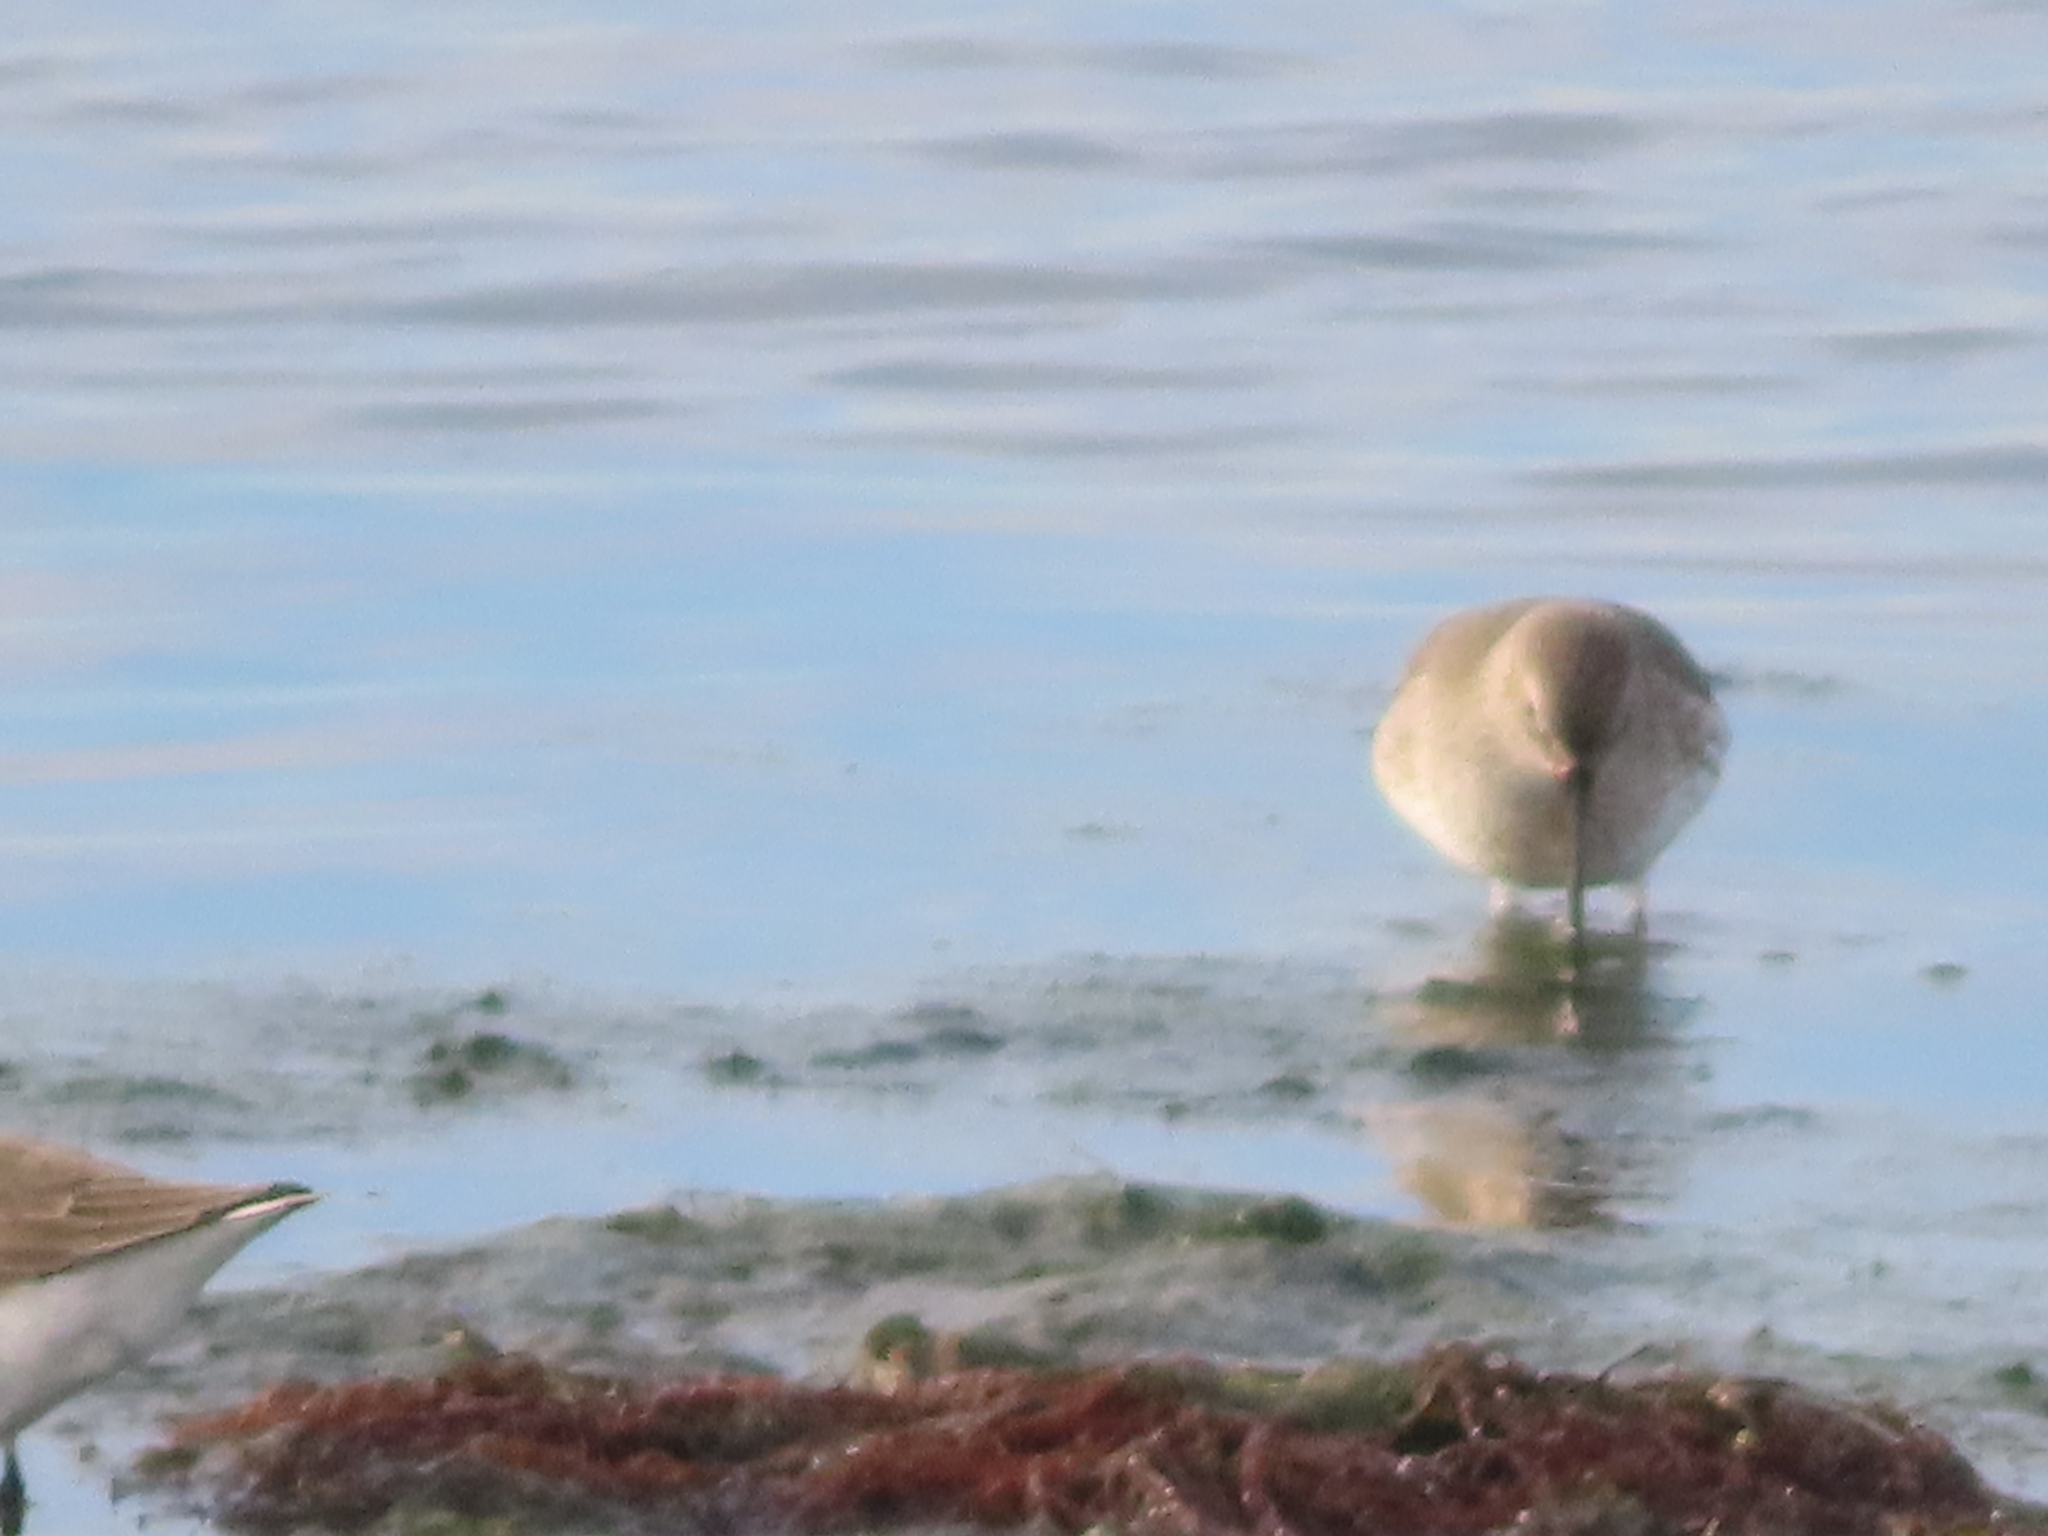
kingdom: Animalia
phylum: Chordata
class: Aves
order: Charadriiformes
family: Scolopacidae
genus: Calidris
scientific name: Calidris alpina
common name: Dunlin
